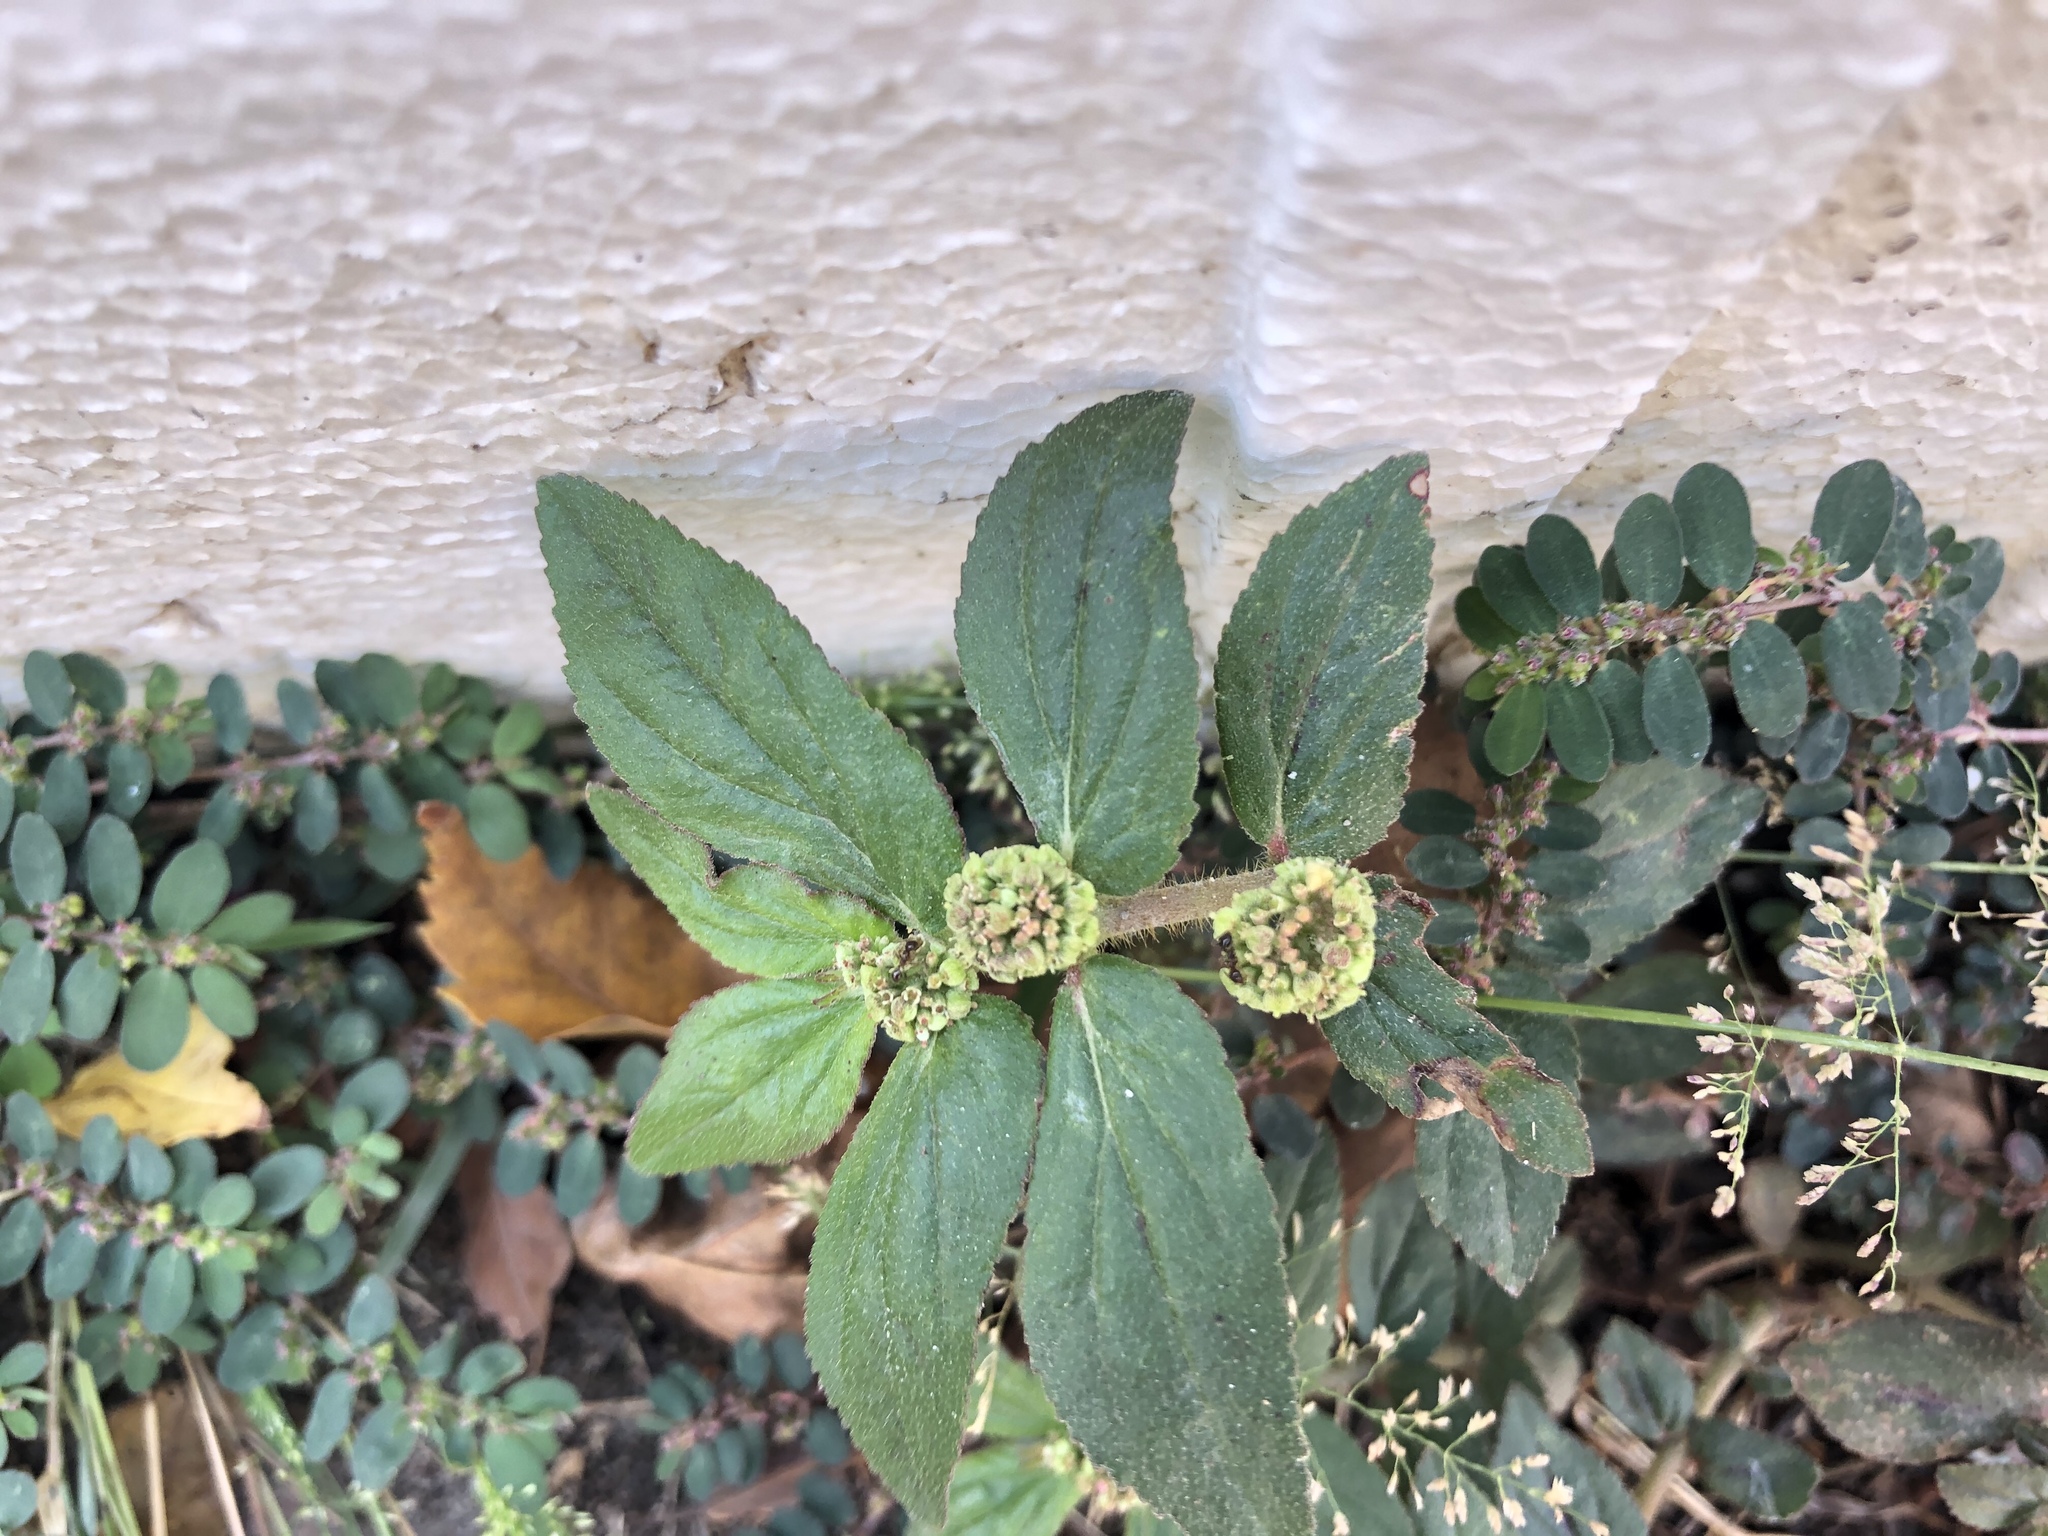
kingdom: Plantae
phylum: Tracheophyta
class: Magnoliopsida
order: Malpighiales
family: Euphorbiaceae
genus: Euphorbia
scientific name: Euphorbia hirta
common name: Pillpod sandmat
